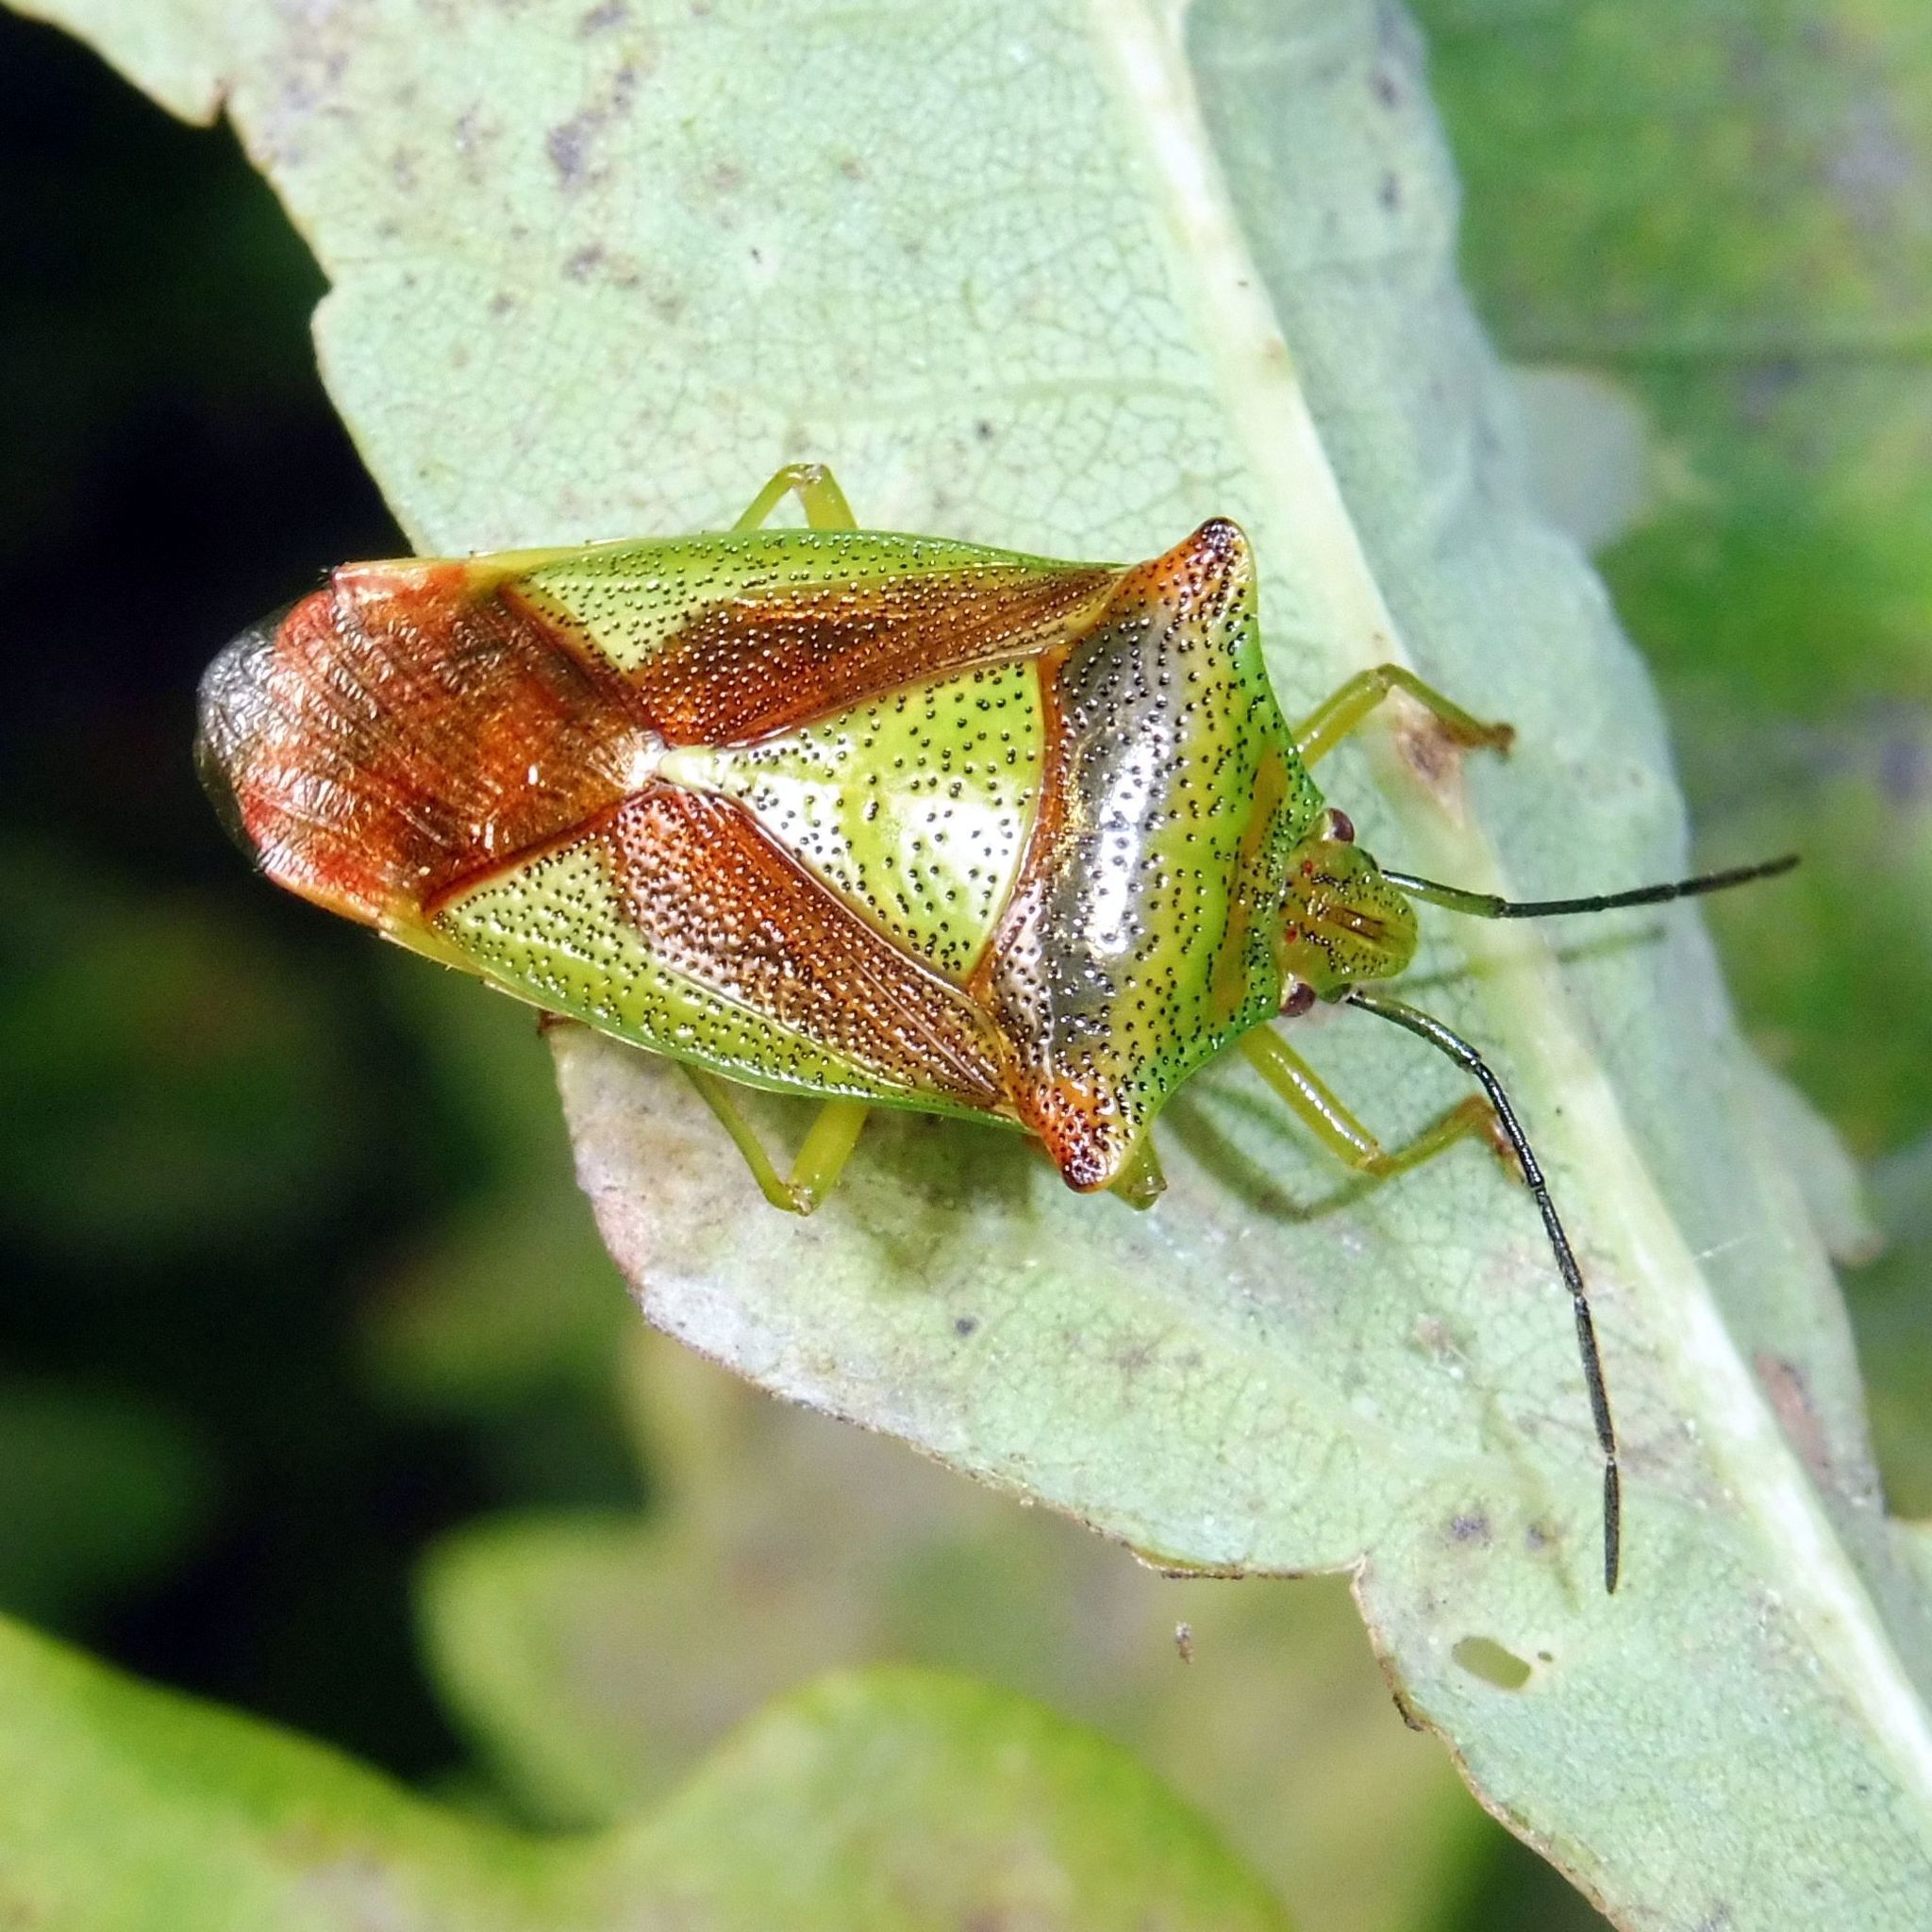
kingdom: Animalia
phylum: Arthropoda
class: Insecta
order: Hemiptera
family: Acanthosomatidae
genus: Acanthosoma
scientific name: Acanthosoma haemorrhoidale
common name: Hawthorn shieldbug
